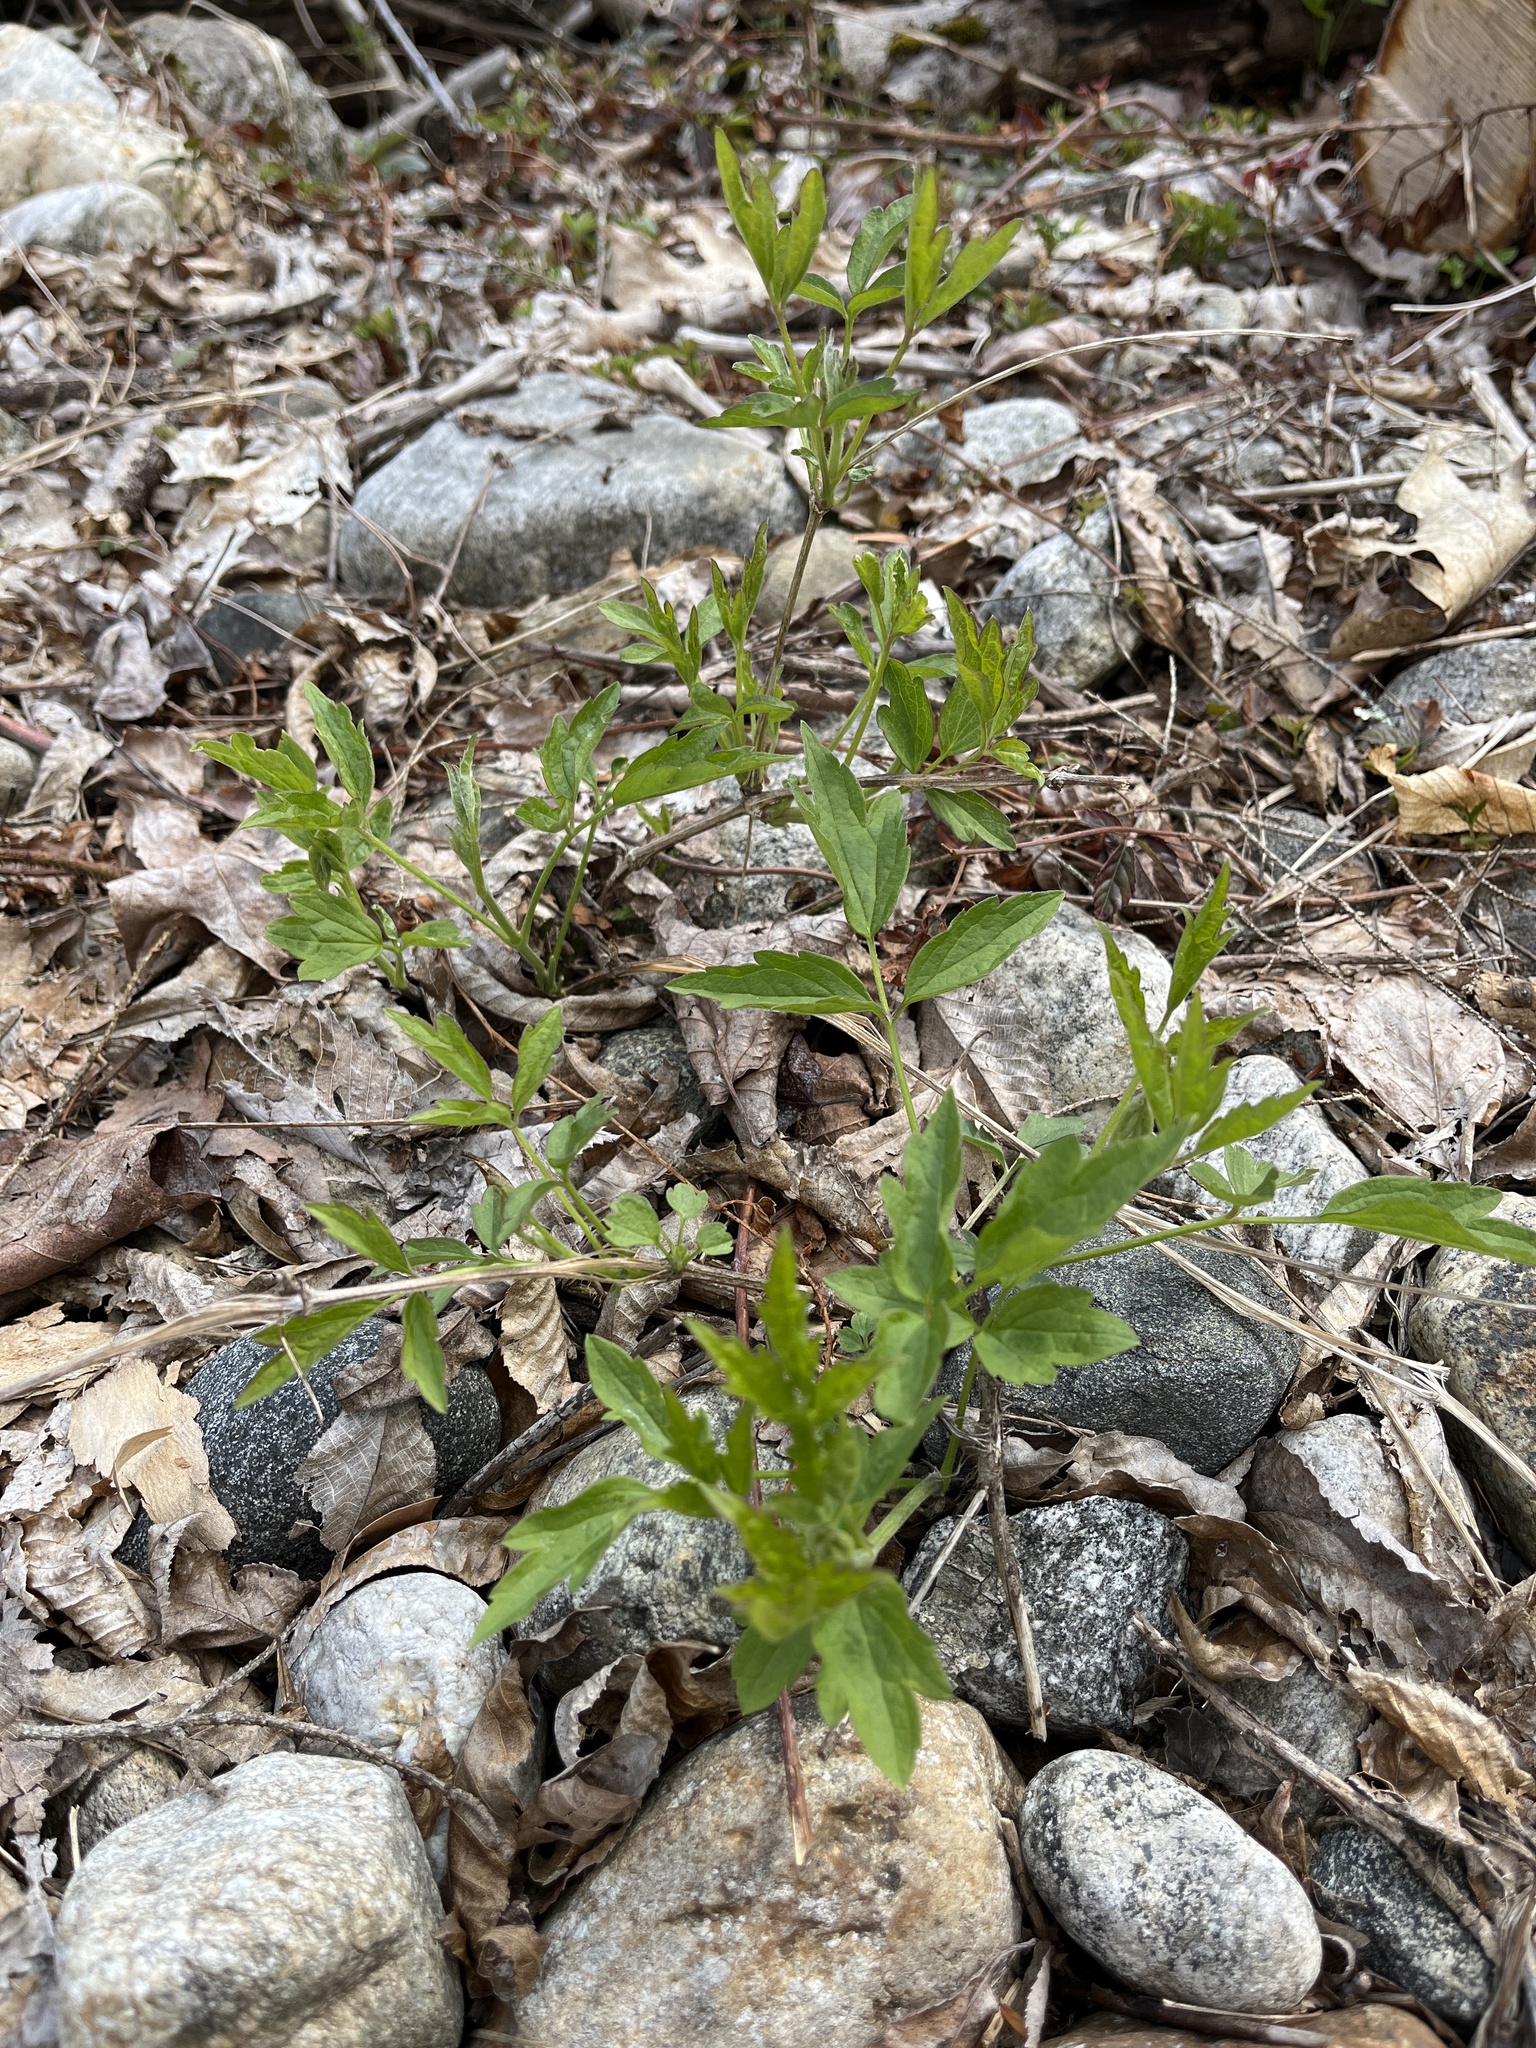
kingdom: Plantae
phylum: Tracheophyta
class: Magnoliopsida
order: Ranunculales
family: Ranunculaceae
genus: Clematis
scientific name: Clematis virginiana
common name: Virgin's-bower
